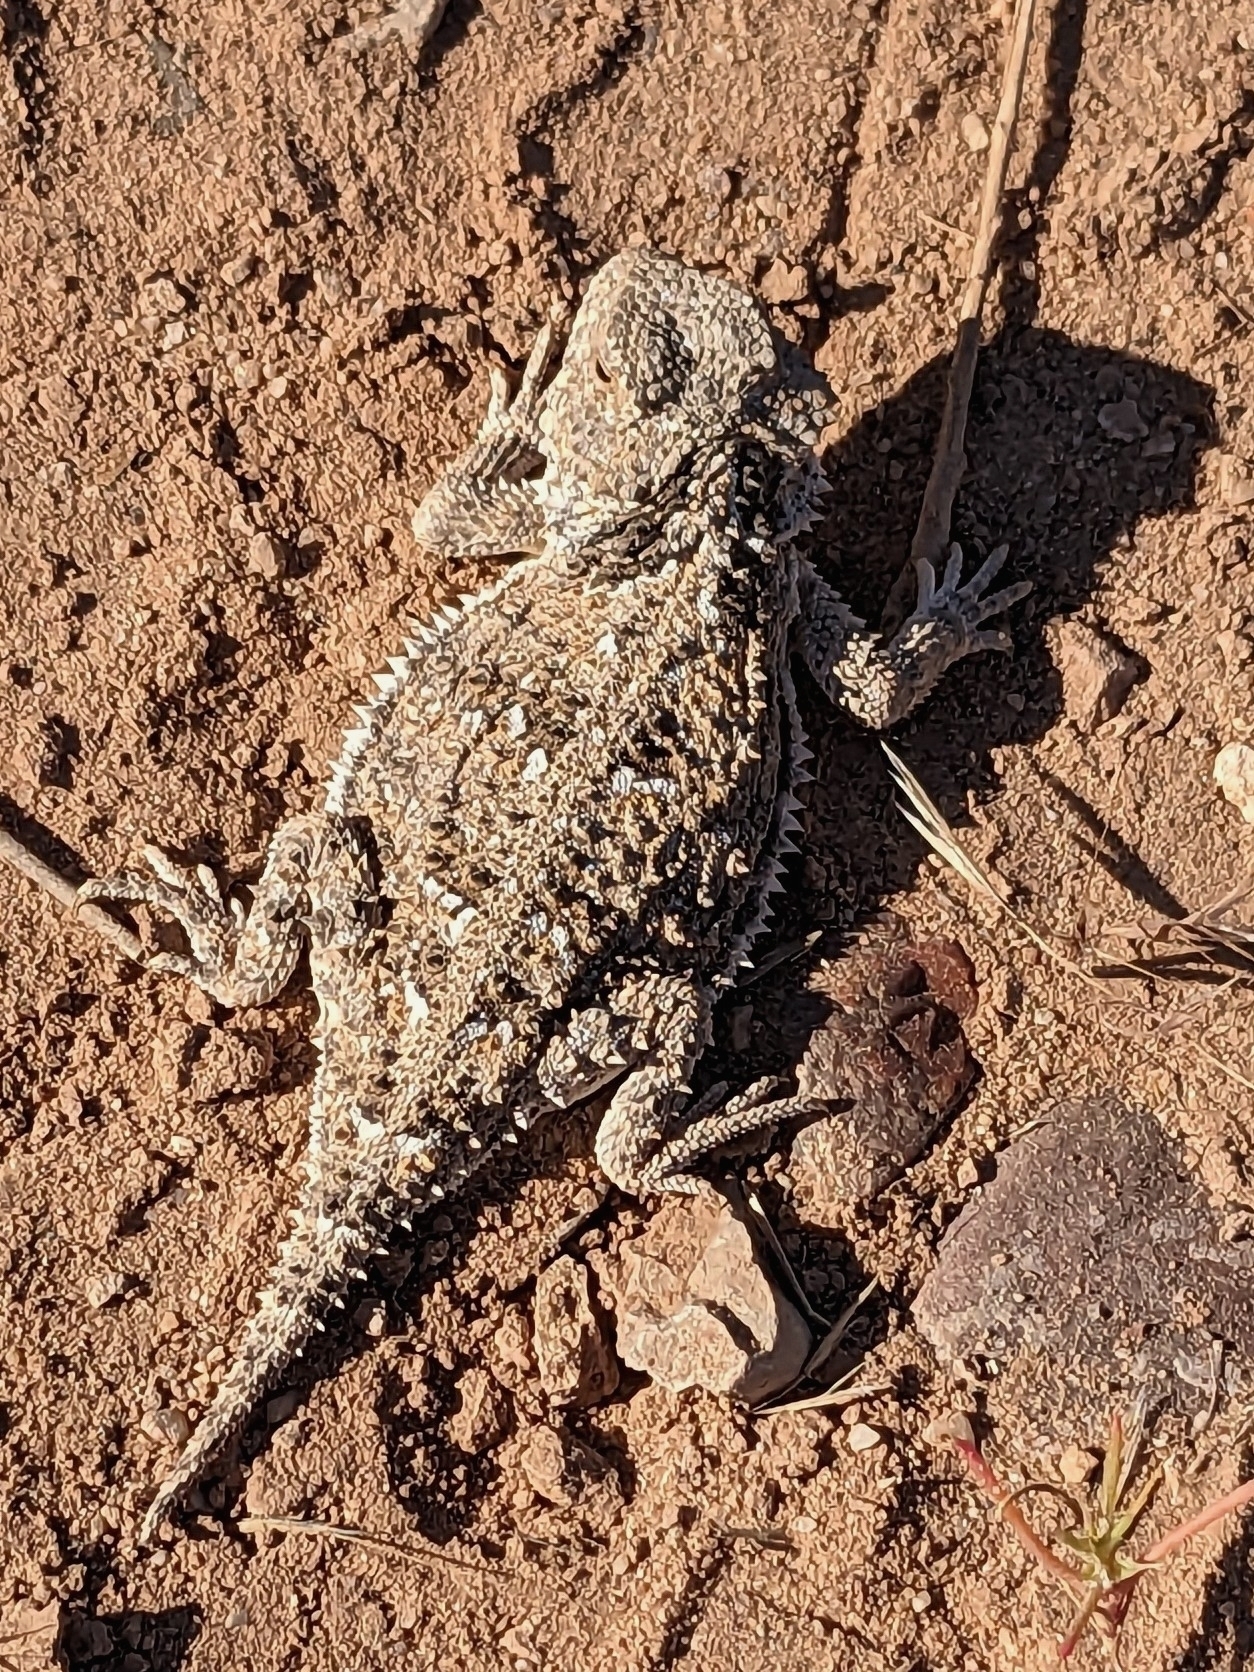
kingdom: Animalia
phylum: Chordata
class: Squamata
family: Phrynosomatidae
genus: Phrynosoma
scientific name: Phrynosoma hernandesi
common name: Greater short-horned lizard
